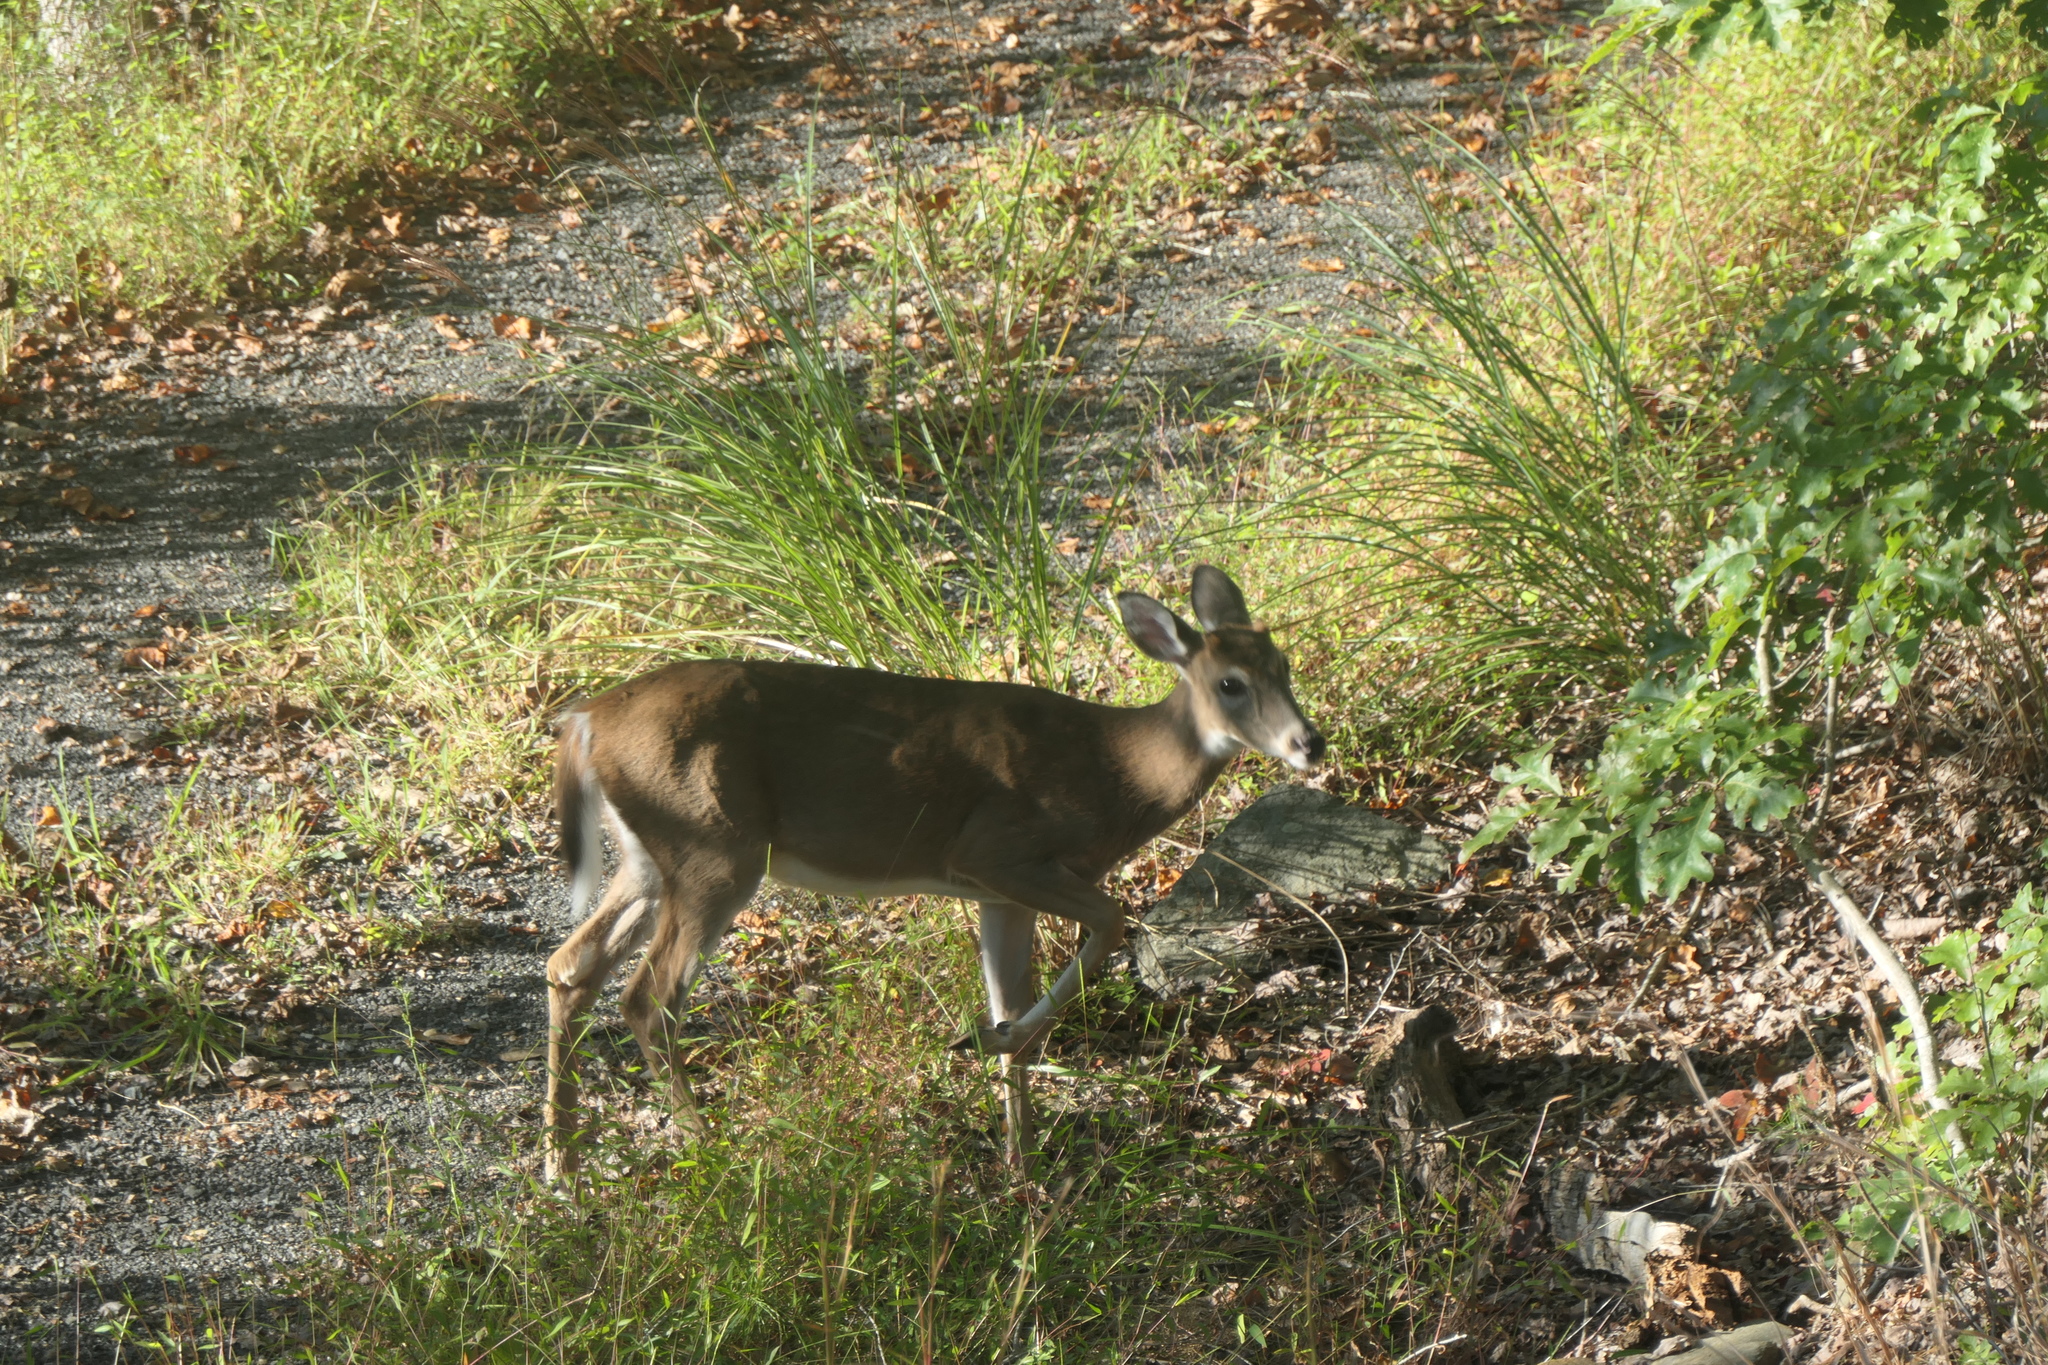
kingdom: Animalia
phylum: Chordata
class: Mammalia
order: Artiodactyla
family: Cervidae
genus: Odocoileus
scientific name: Odocoileus virginianus
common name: White-tailed deer
